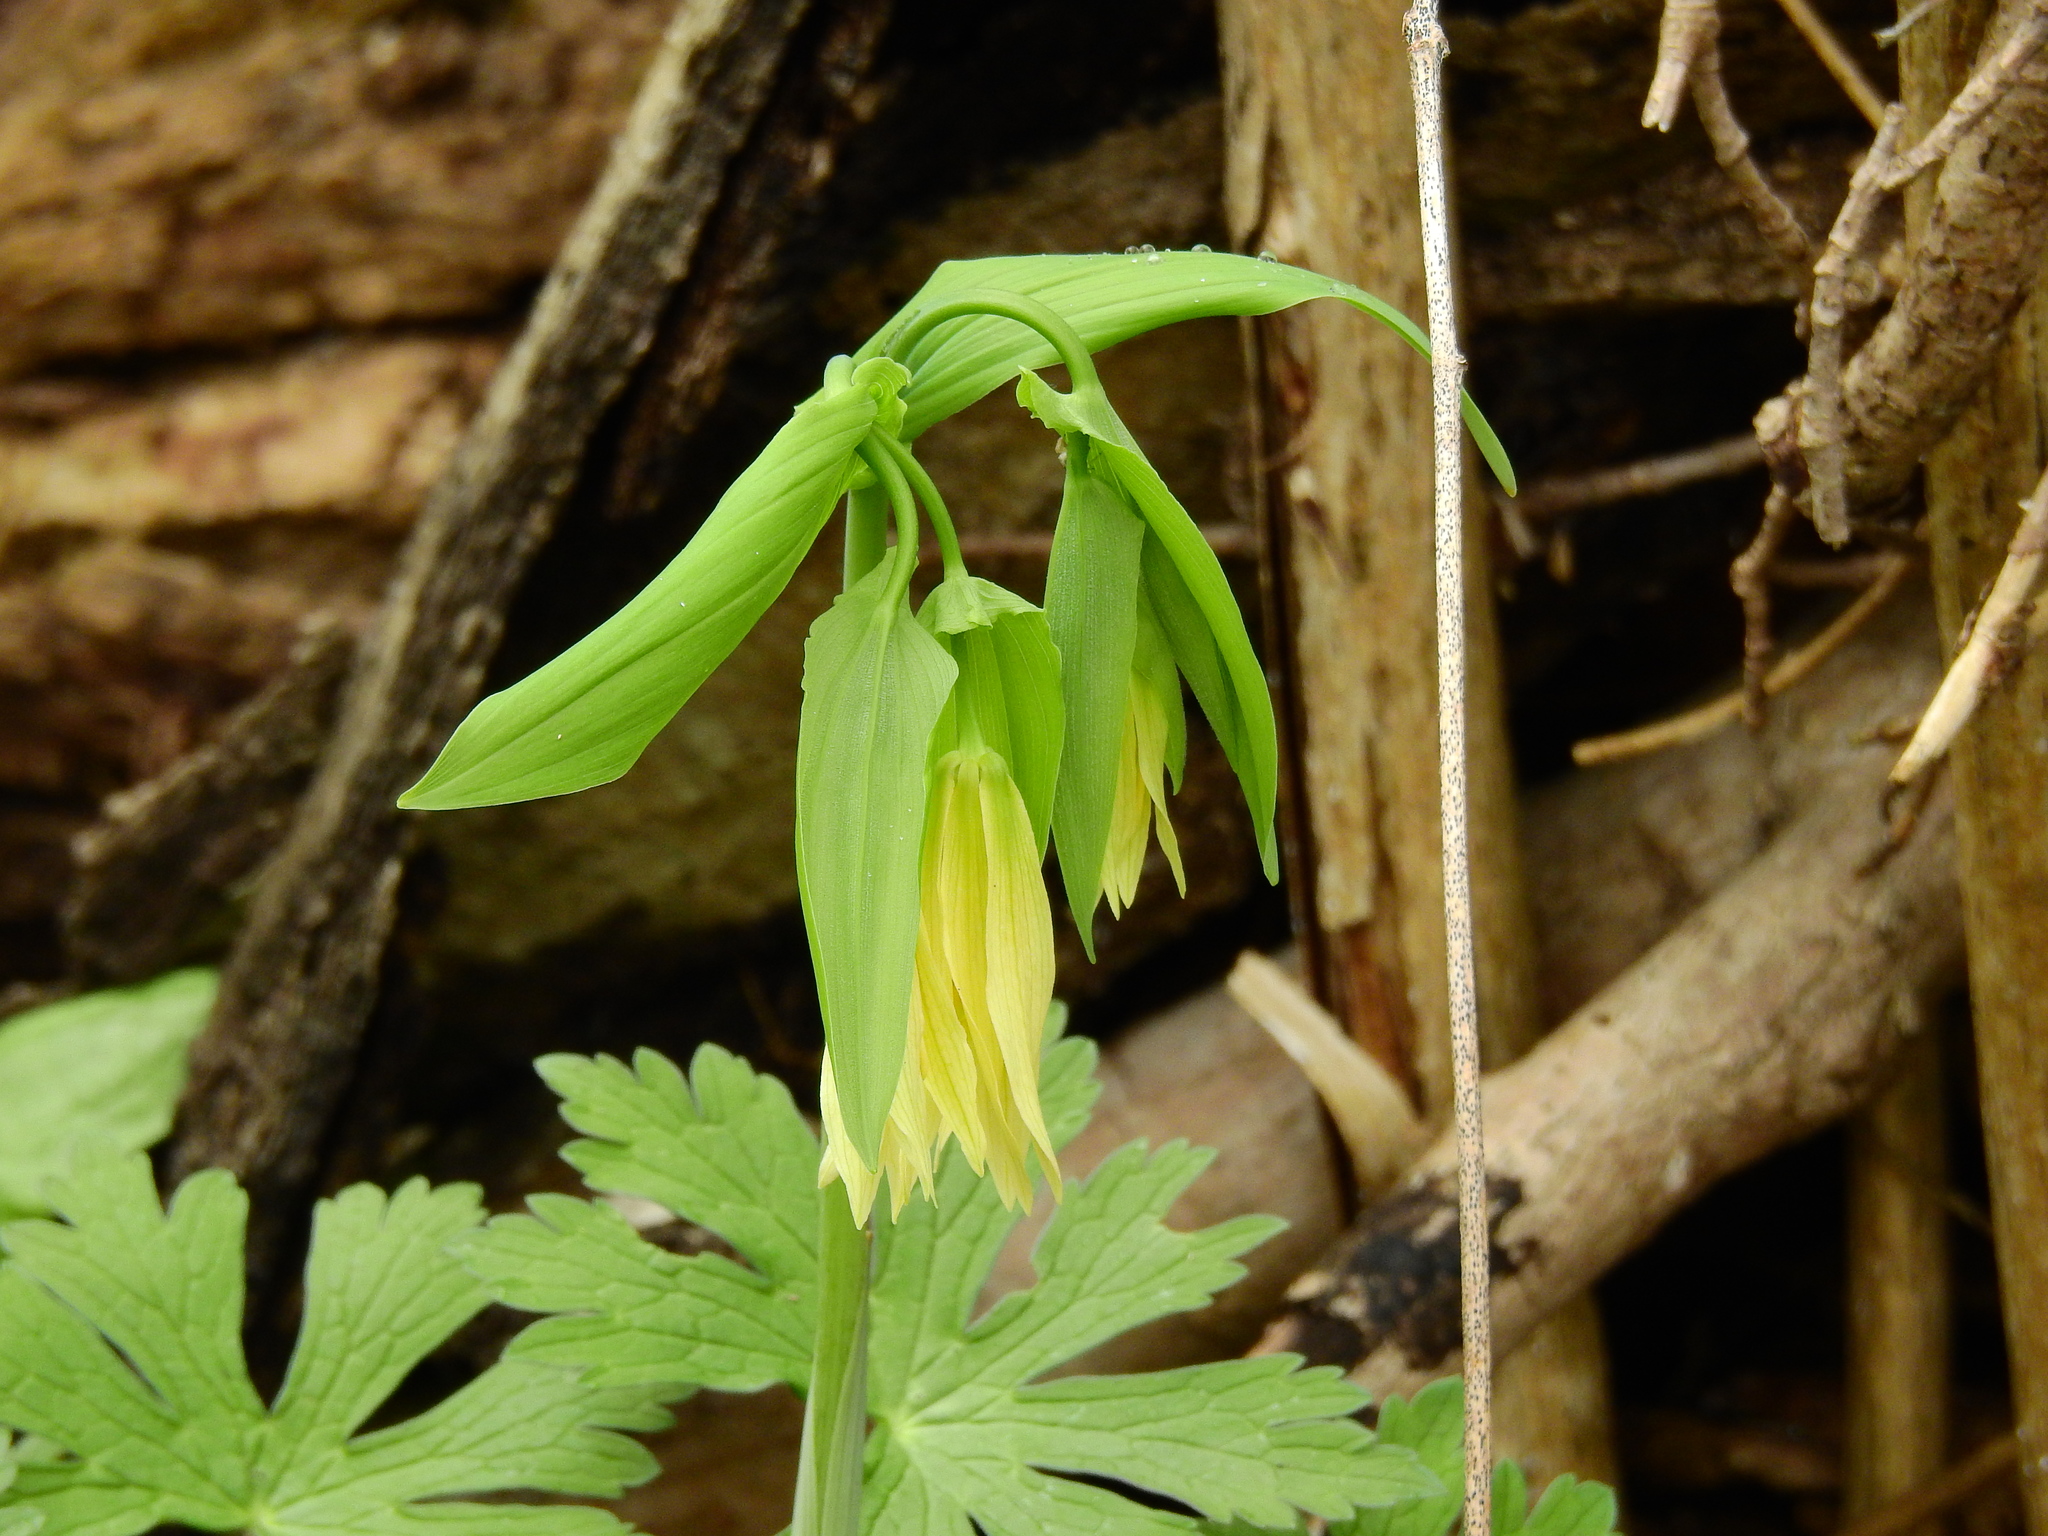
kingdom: Plantae
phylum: Tracheophyta
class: Liliopsida
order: Liliales
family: Colchicaceae
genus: Uvularia
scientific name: Uvularia grandiflora
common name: Bellwort
